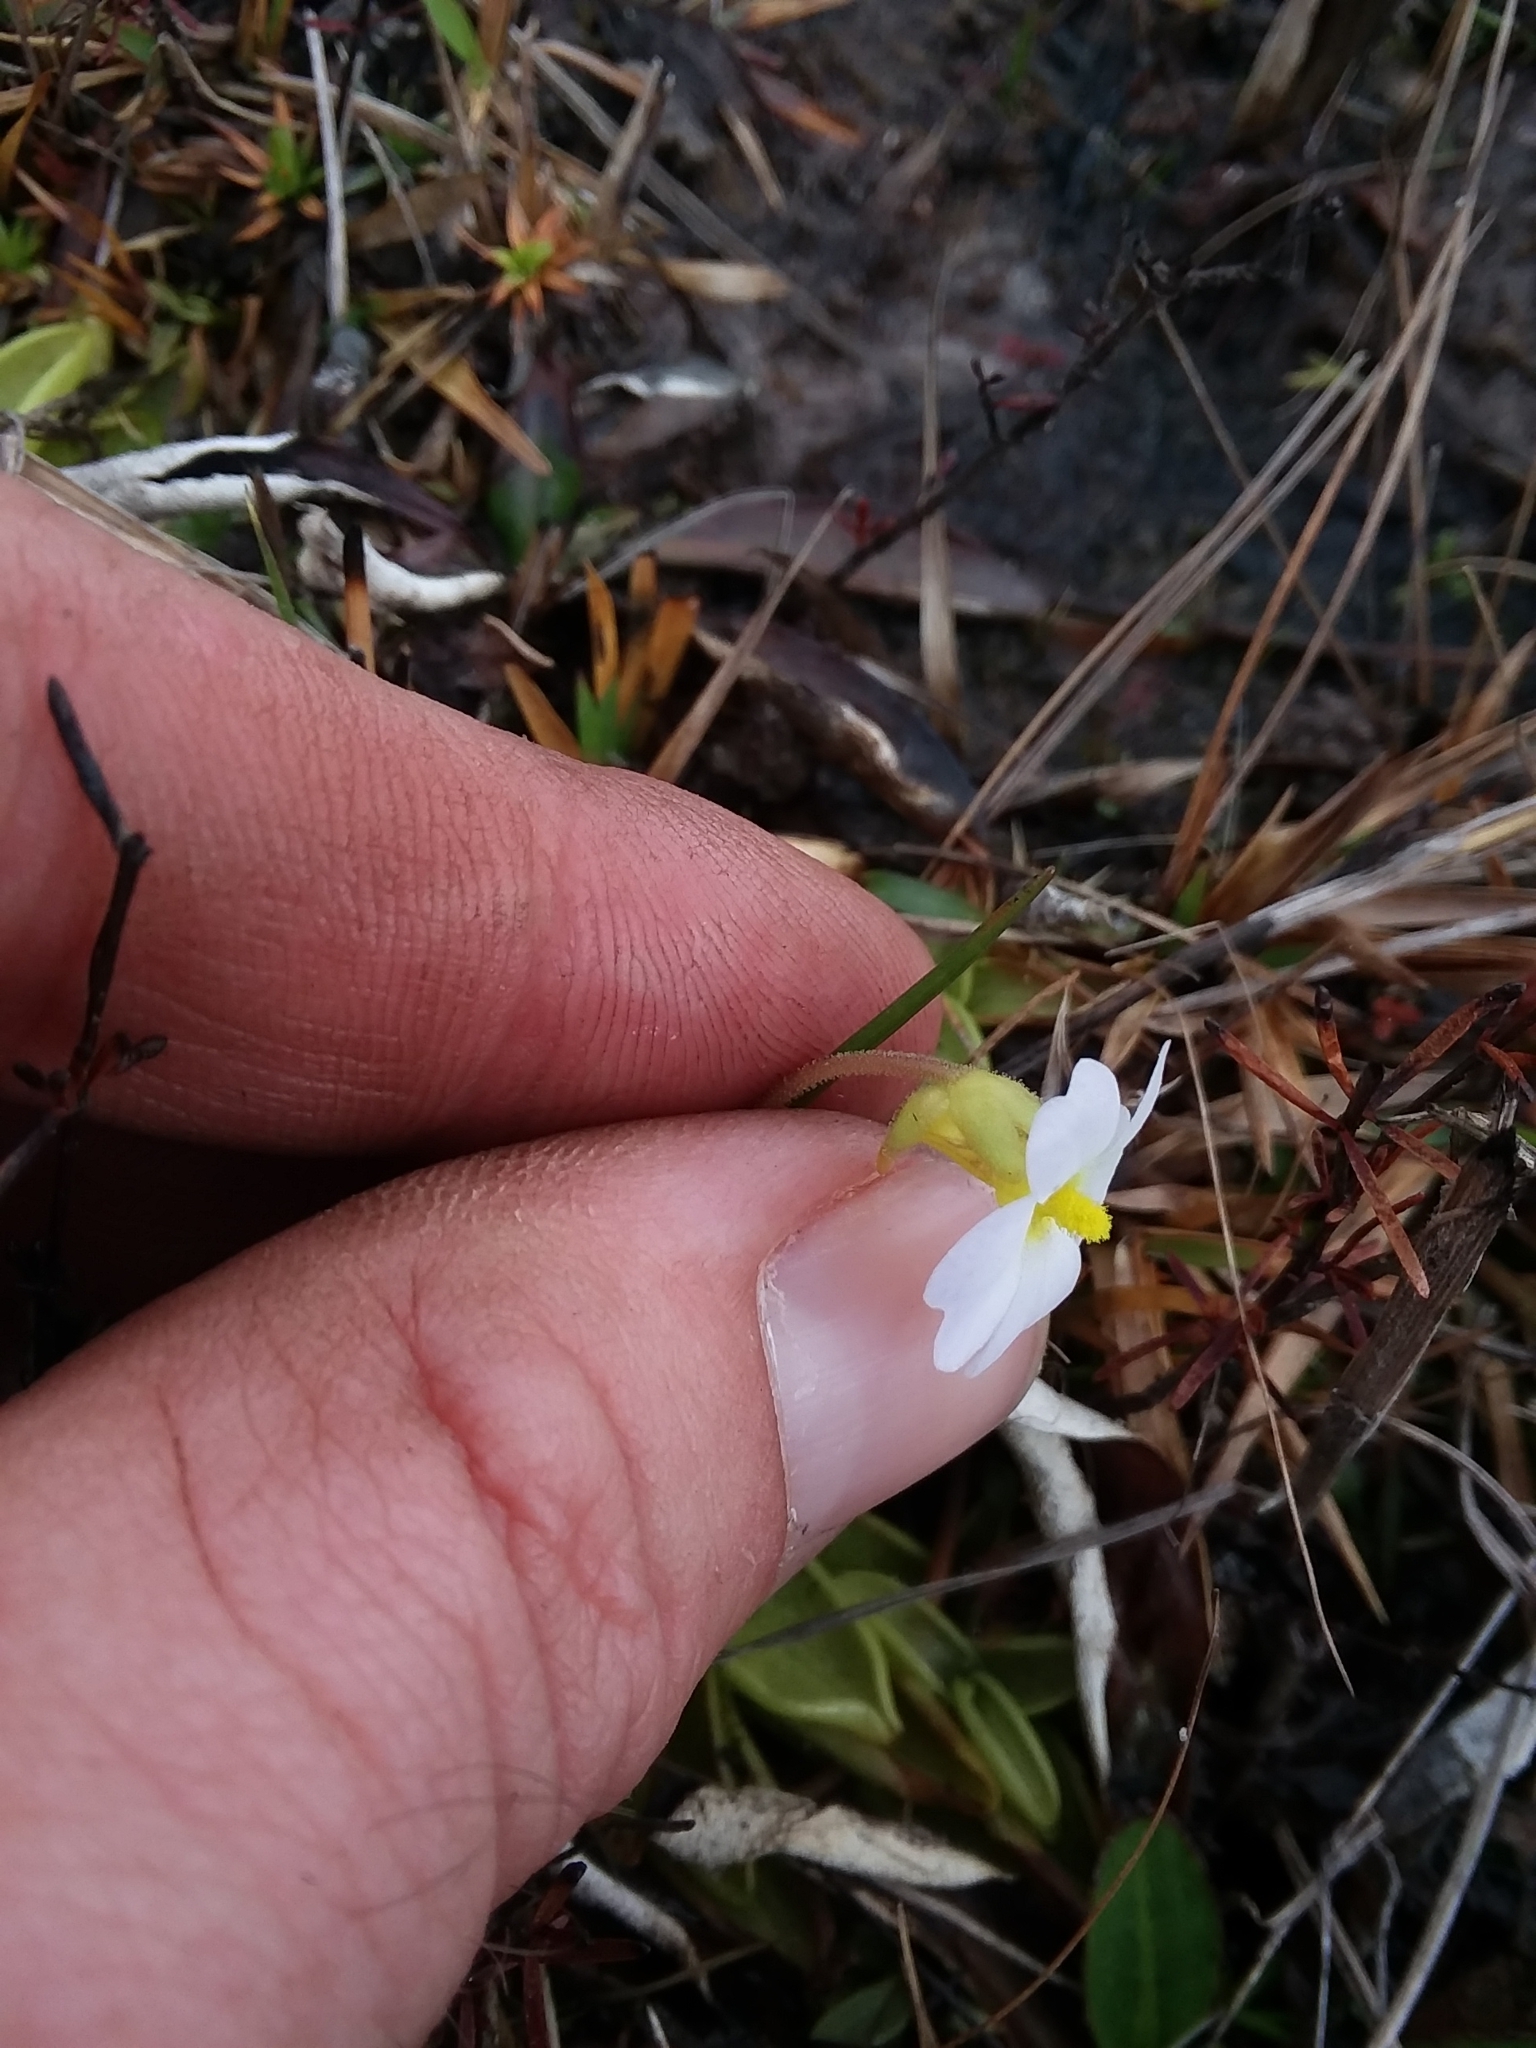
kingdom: Plantae
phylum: Tracheophyta
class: Magnoliopsida
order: Lamiales
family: Lentibulariaceae
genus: Pinguicula
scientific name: Pinguicula primuliflora
